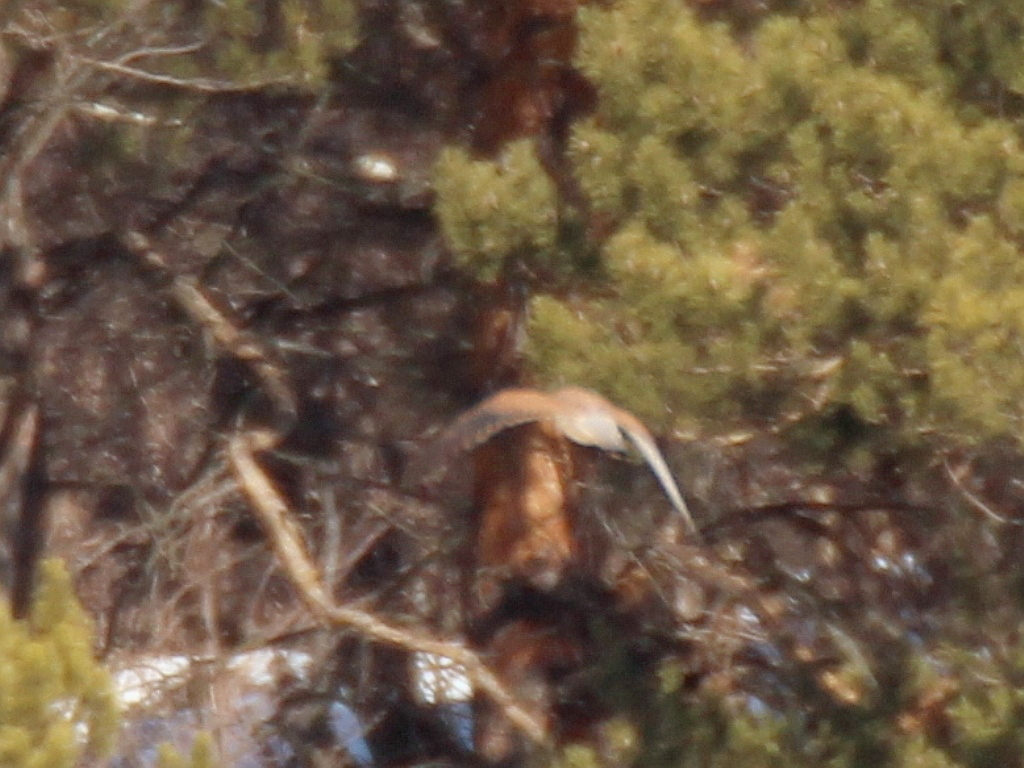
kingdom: Animalia
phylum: Chordata
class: Aves
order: Falconiformes
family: Falconidae
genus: Falco
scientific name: Falco tinnunculus
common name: Common kestrel
